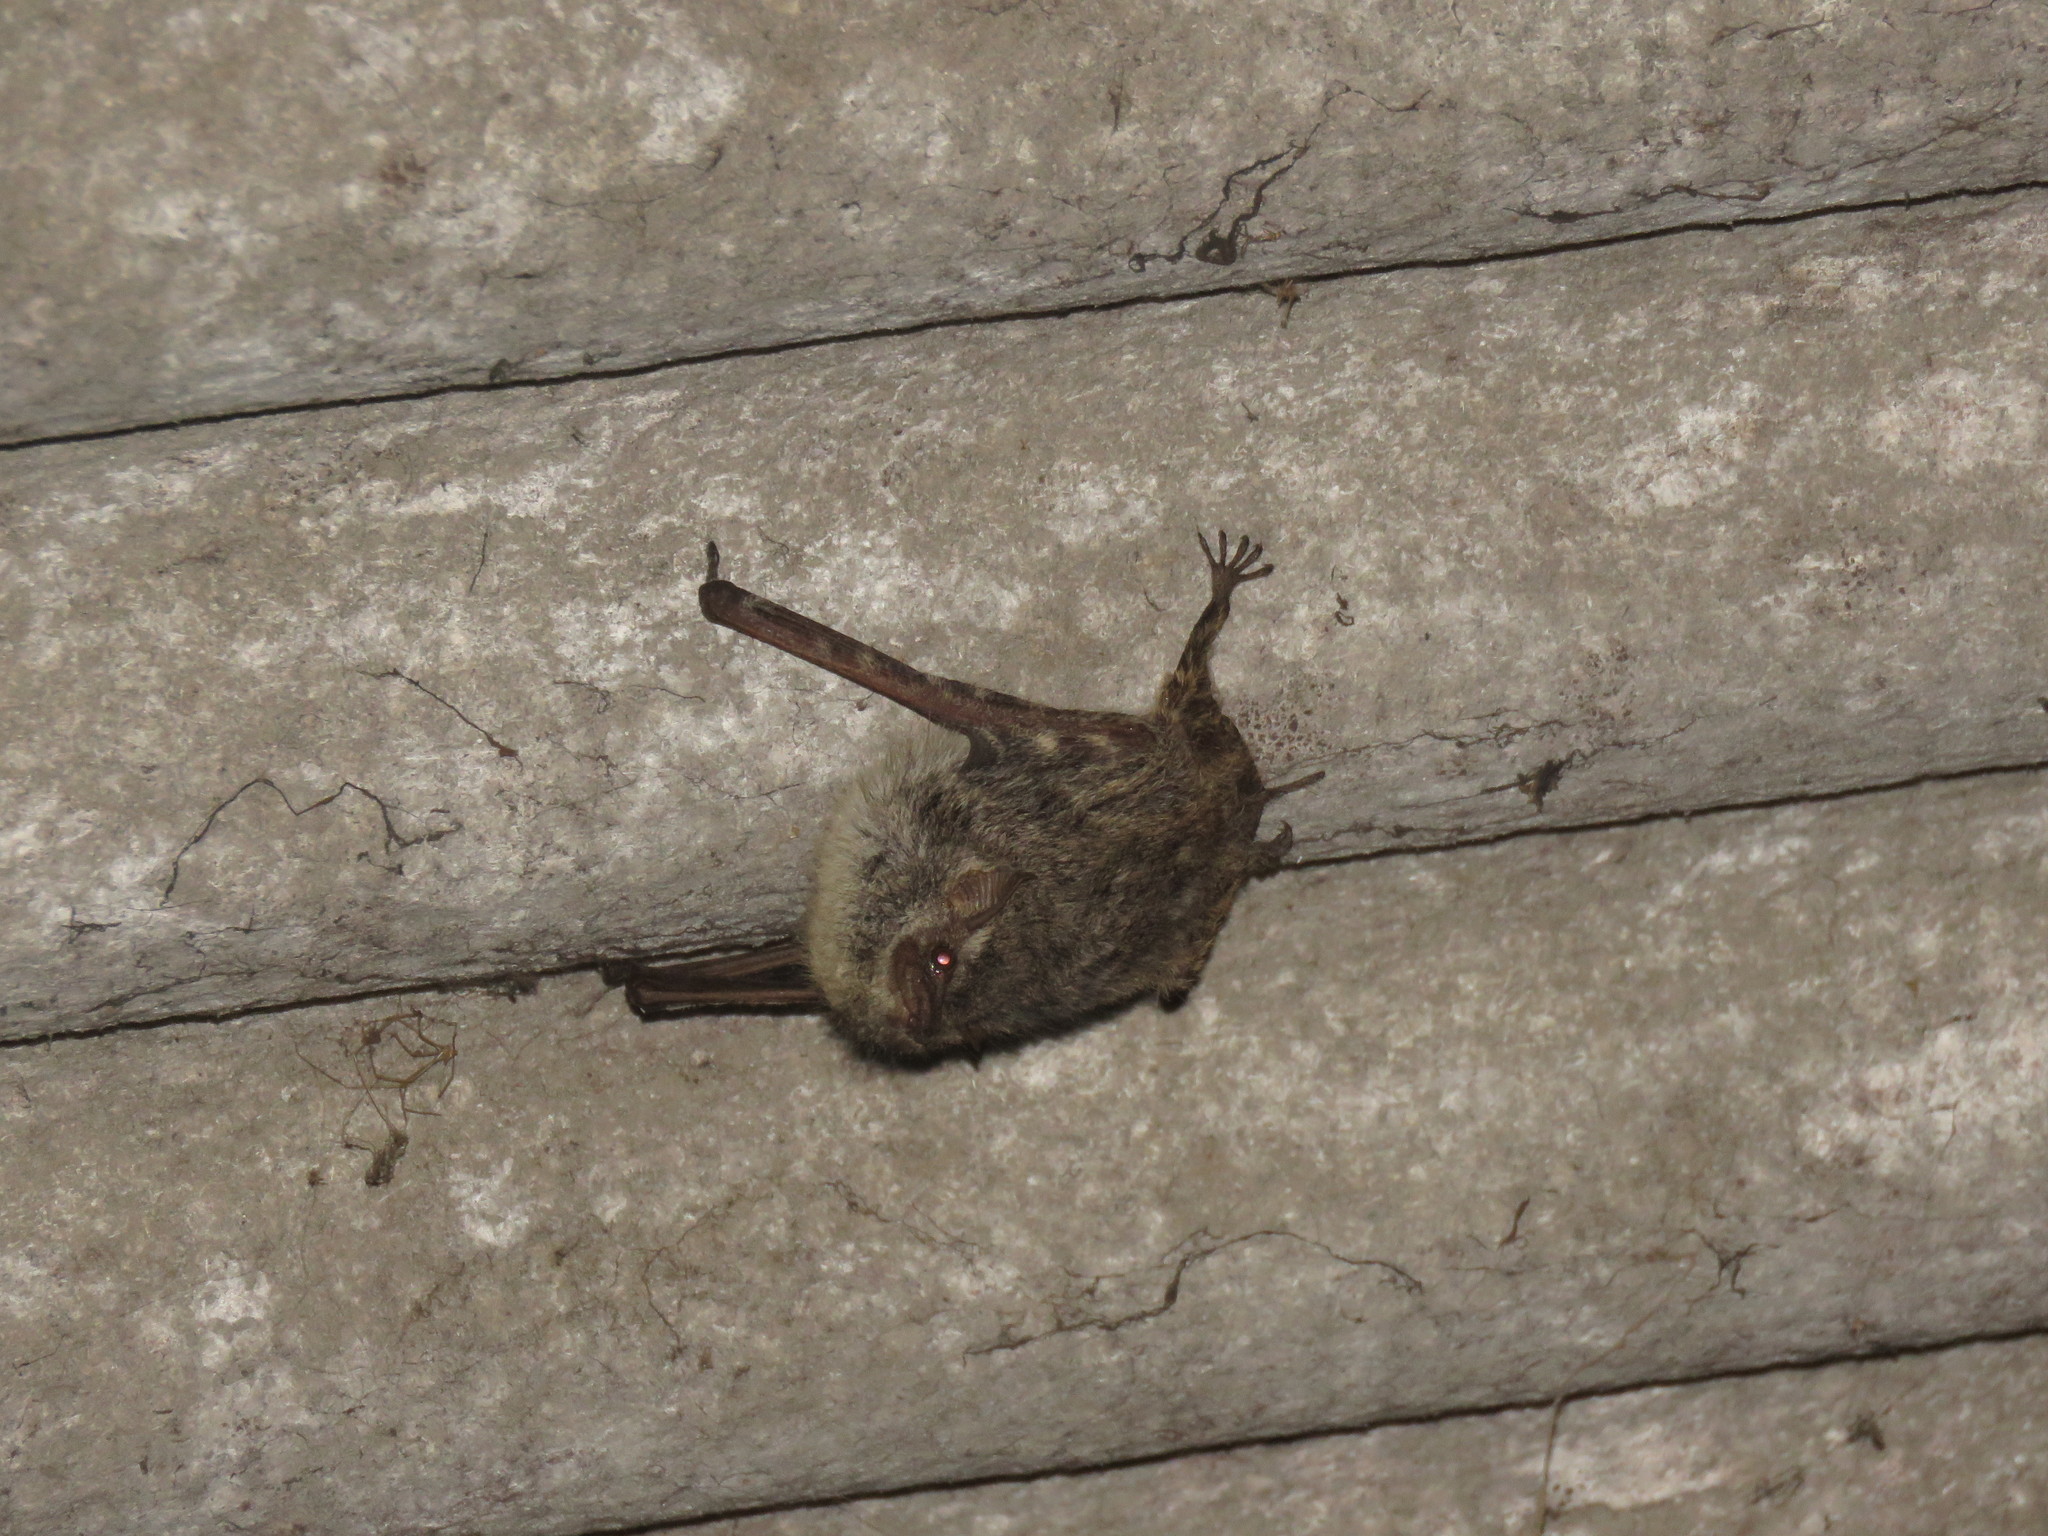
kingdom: Animalia
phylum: Chordata
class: Mammalia
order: Chiroptera
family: Emballonuridae
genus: Rhynchonycteris
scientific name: Rhynchonycteris naso
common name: Proboscis bat
